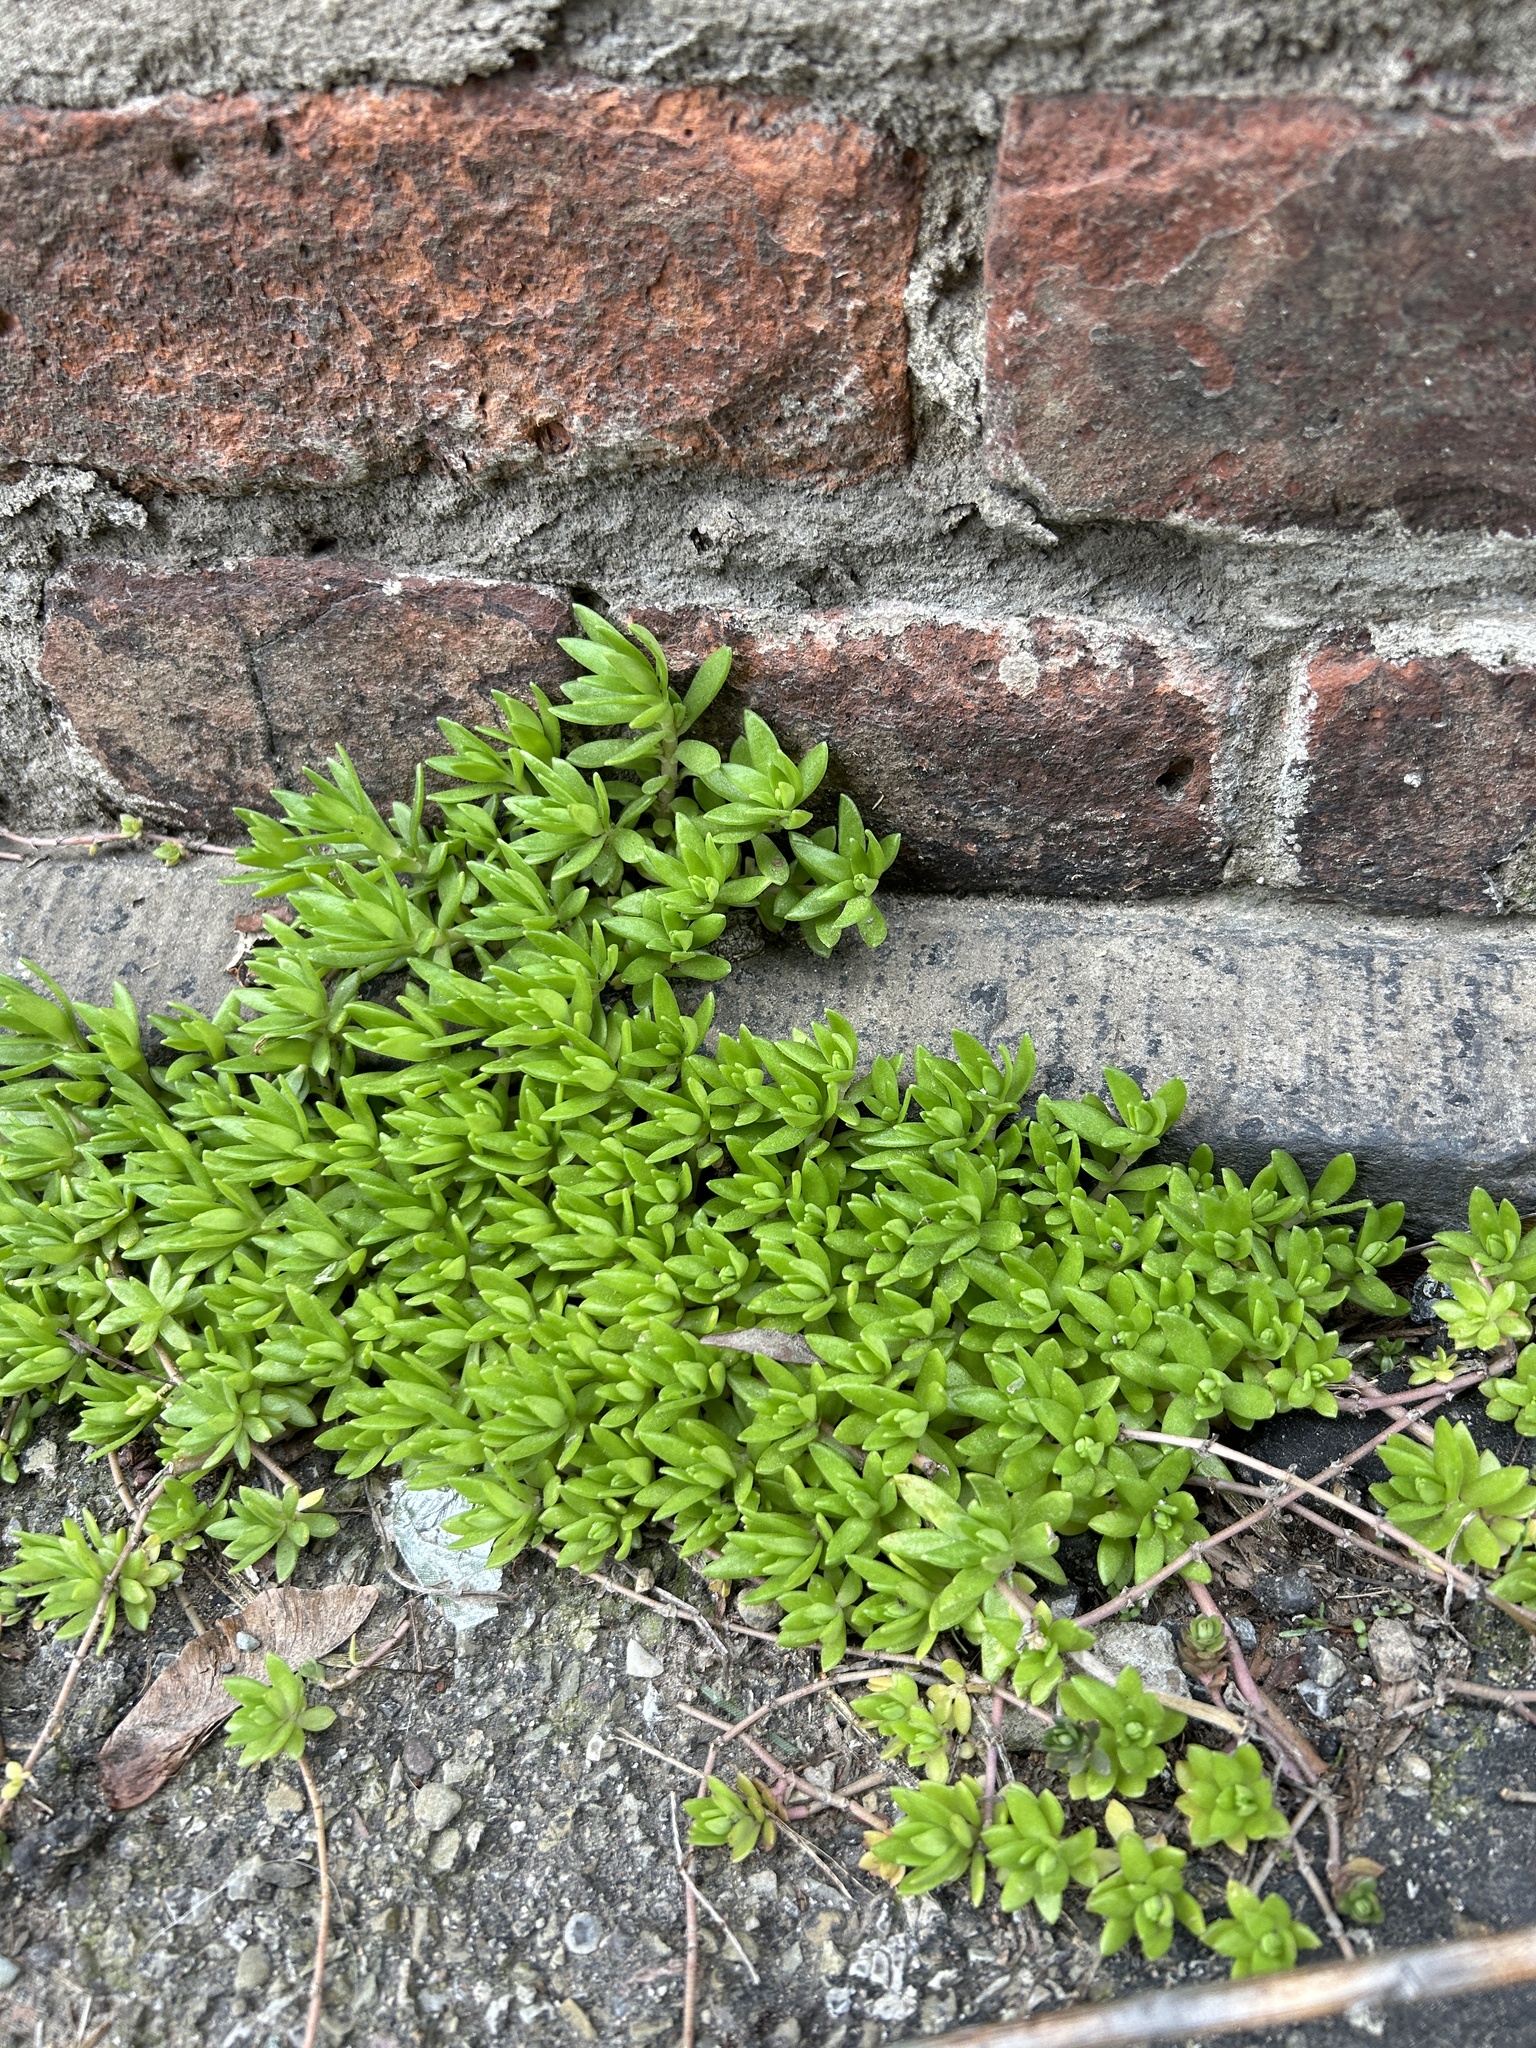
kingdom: Plantae
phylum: Tracheophyta
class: Magnoliopsida
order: Saxifragales
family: Crassulaceae
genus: Sedum
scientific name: Sedum sarmentosum
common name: Stringy stonecrop
